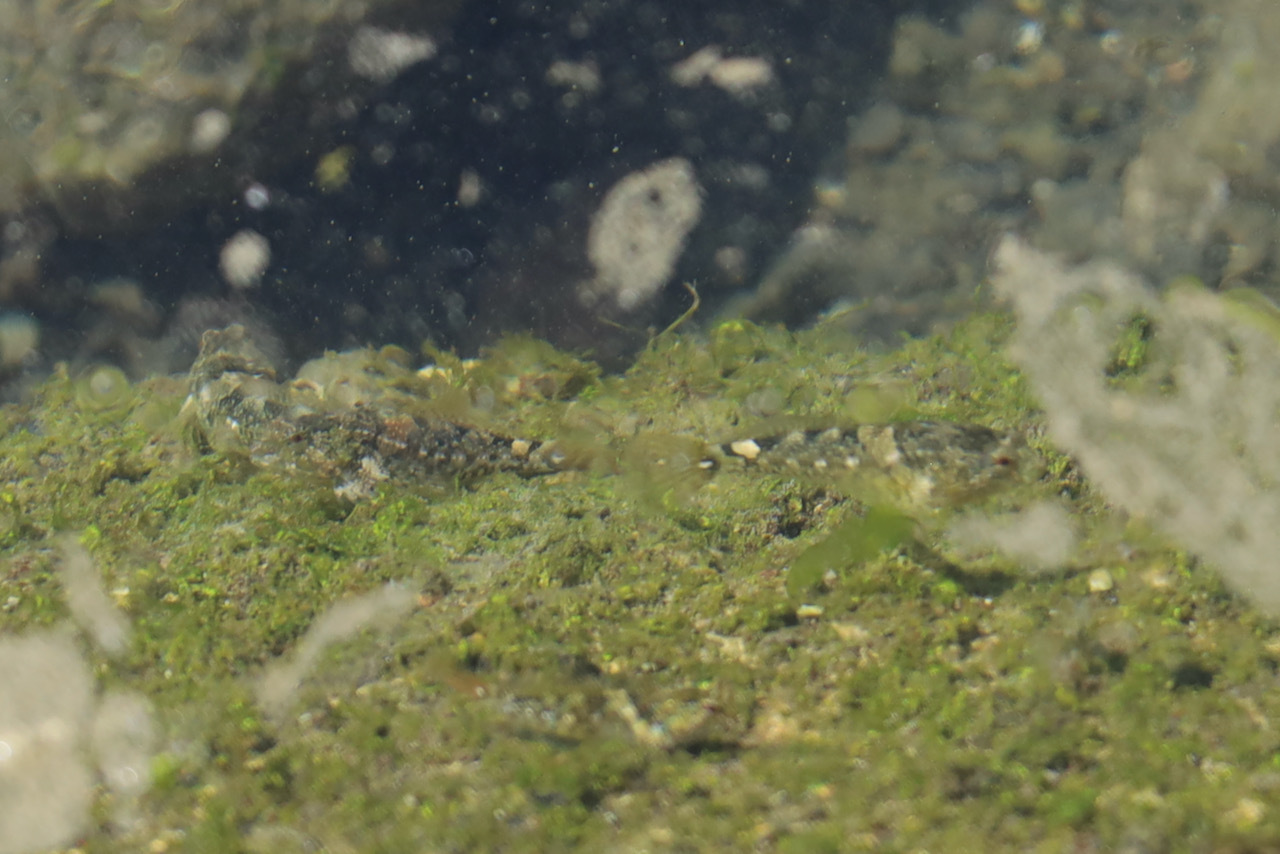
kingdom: Animalia
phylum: Chordata
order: Scorpaeniformes
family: Cottidae
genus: Oligocottus
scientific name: Oligocottus maculosus
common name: Tidepool sculpin
